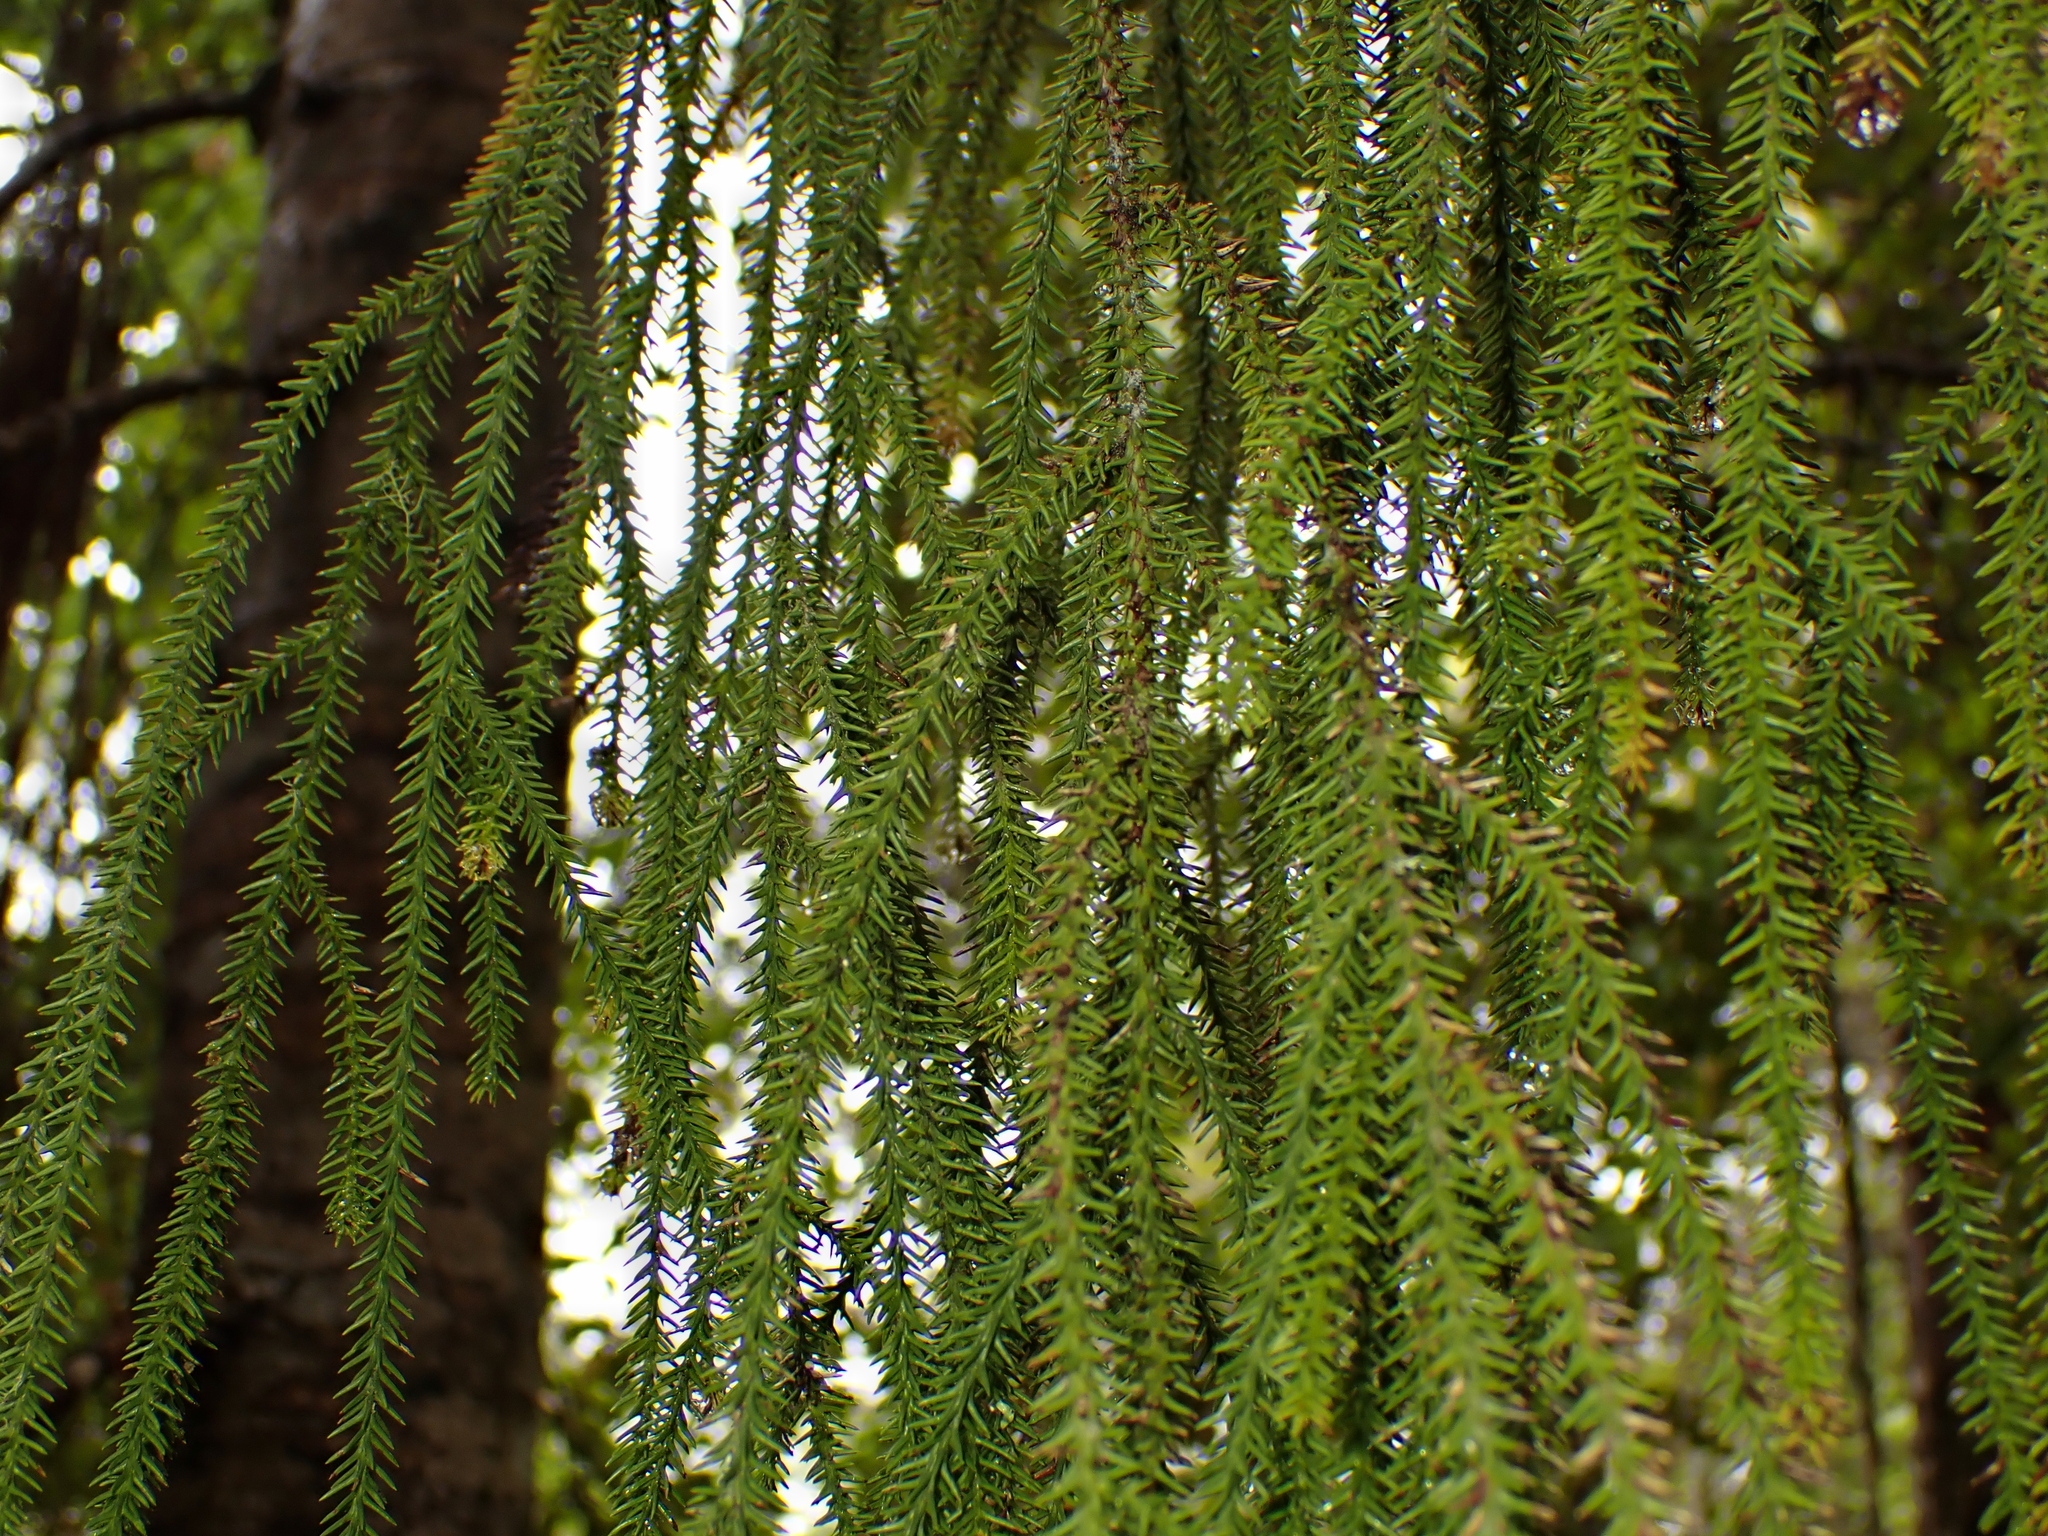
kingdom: Plantae
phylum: Tracheophyta
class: Pinopsida
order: Pinales
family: Podocarpaceae
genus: Dacrydium
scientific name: Dacrydium cupressinum
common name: Red pine
